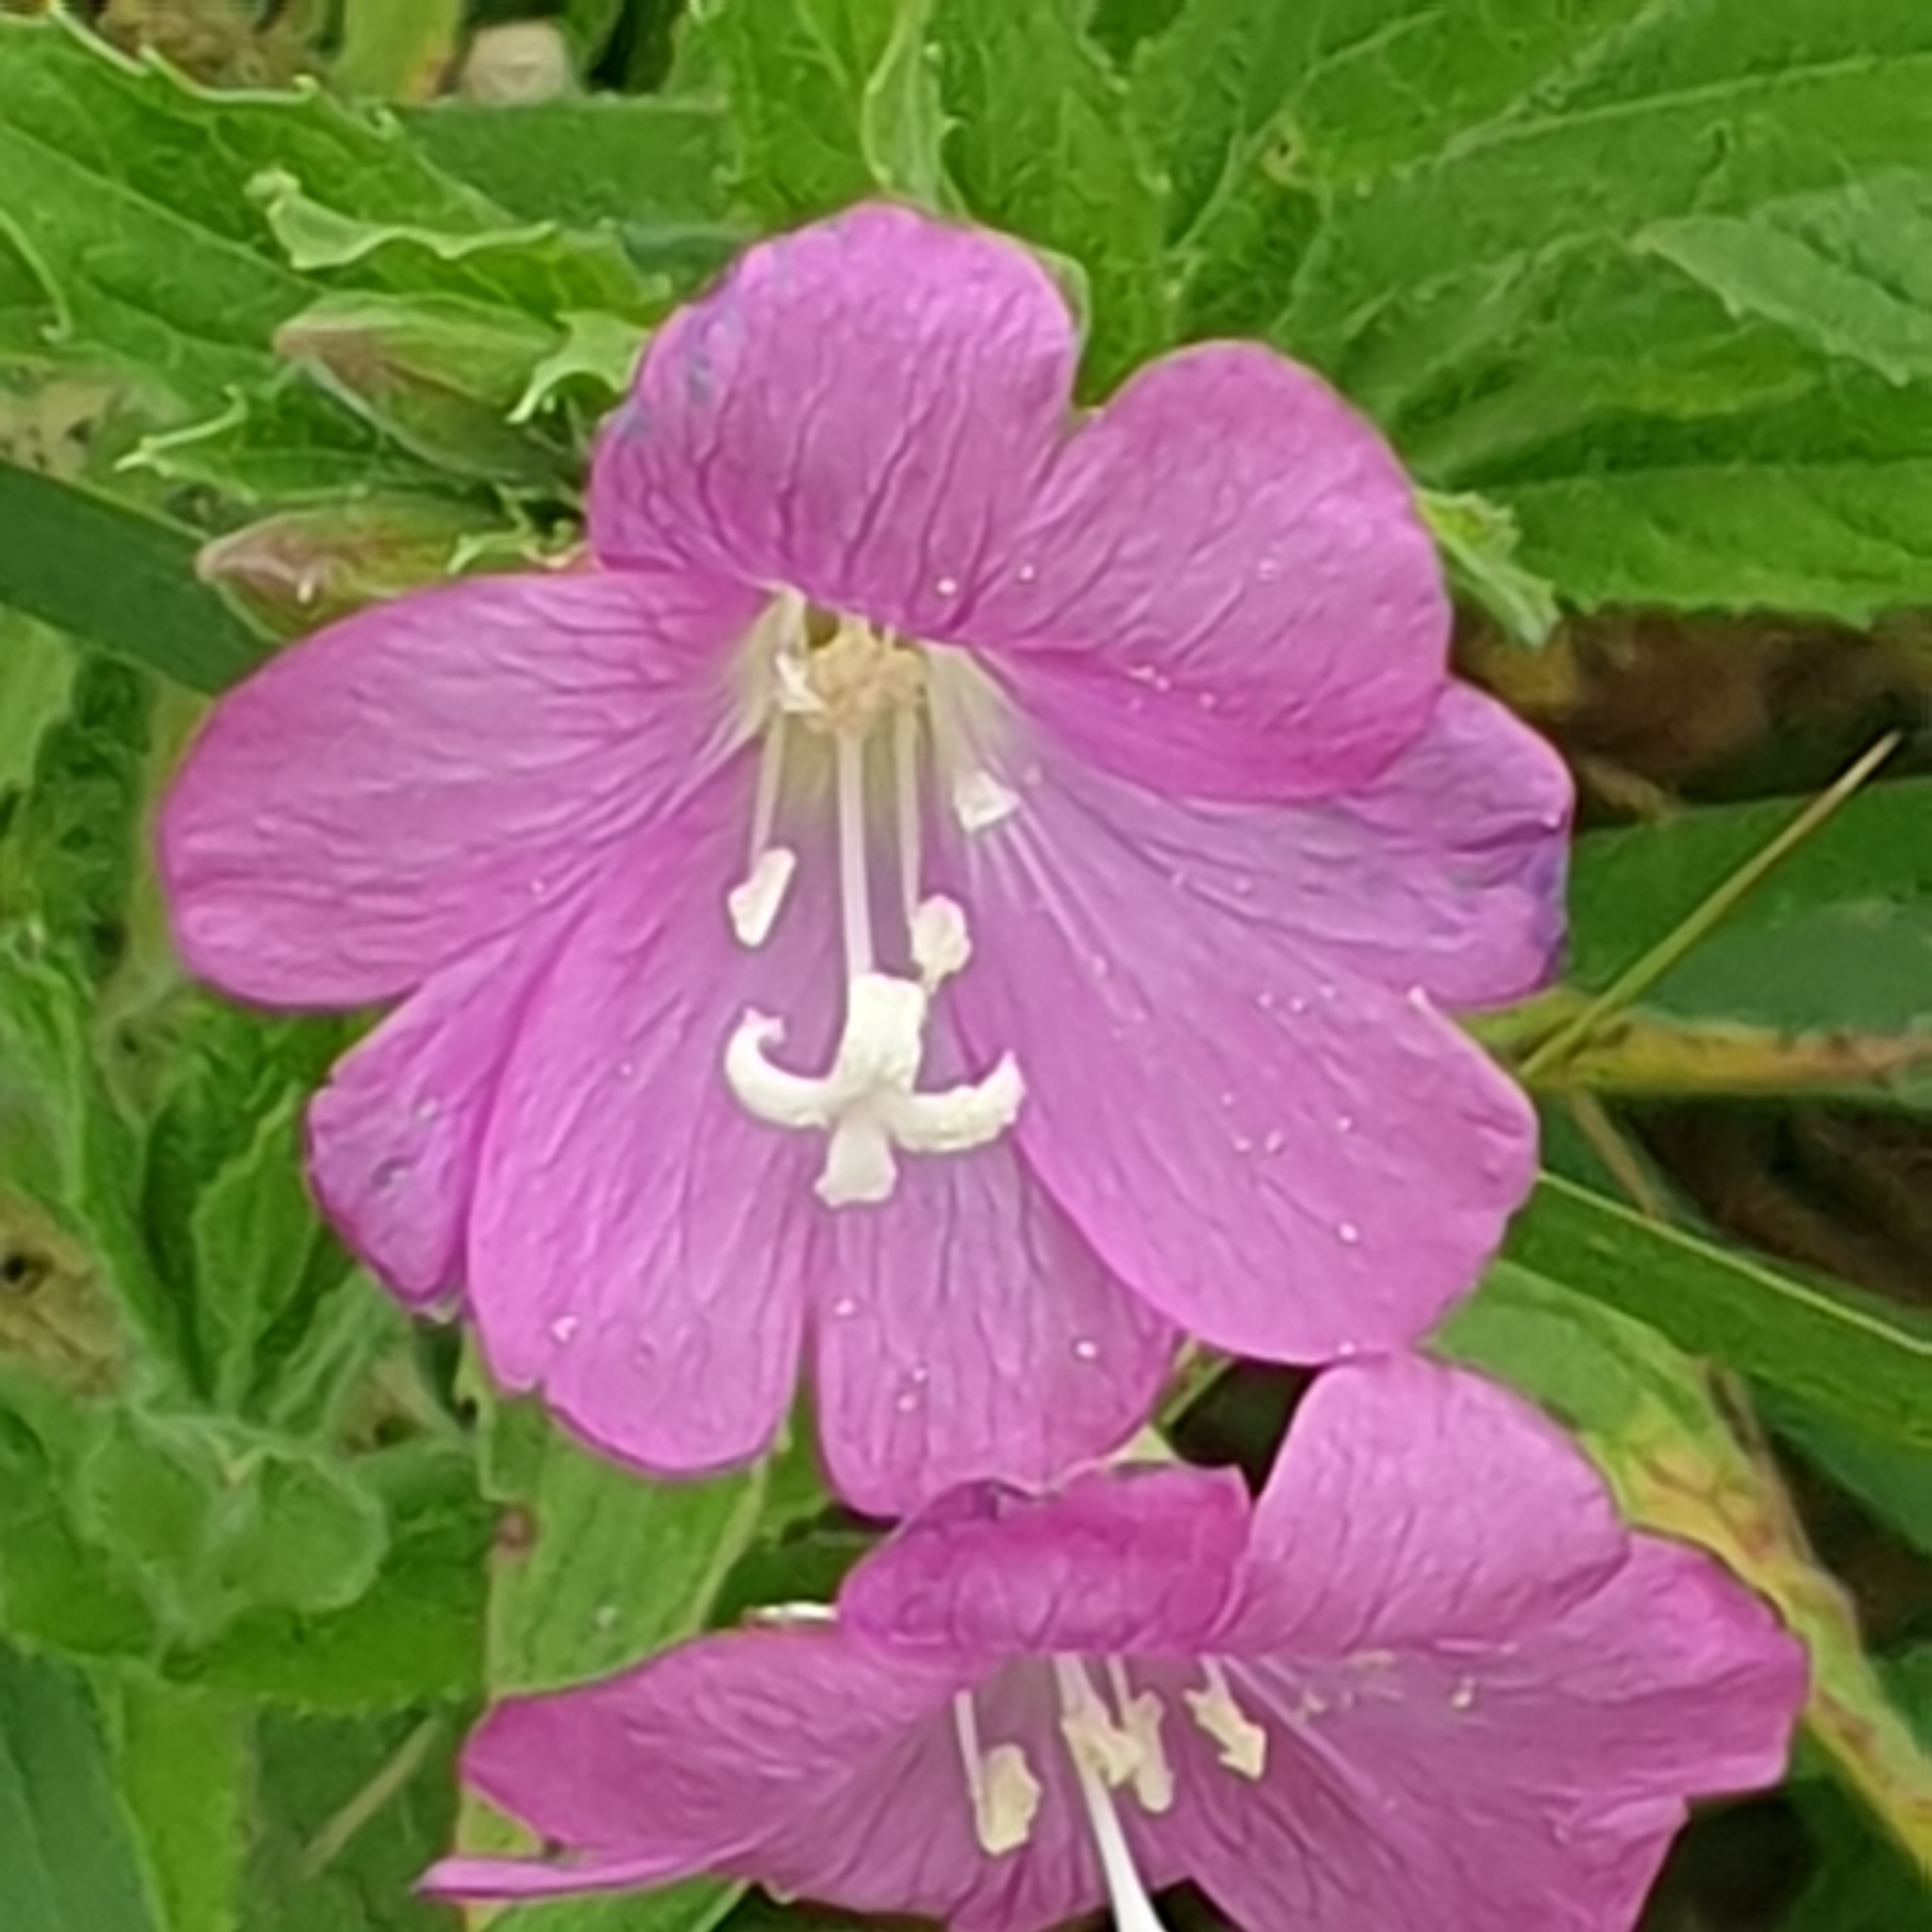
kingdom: Plantae
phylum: Tracheophyta
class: Magnoliopsida
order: Myrtales
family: Onagraceae
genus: Epilobium
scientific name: Epilobium hirsutum
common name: Great willowherb
